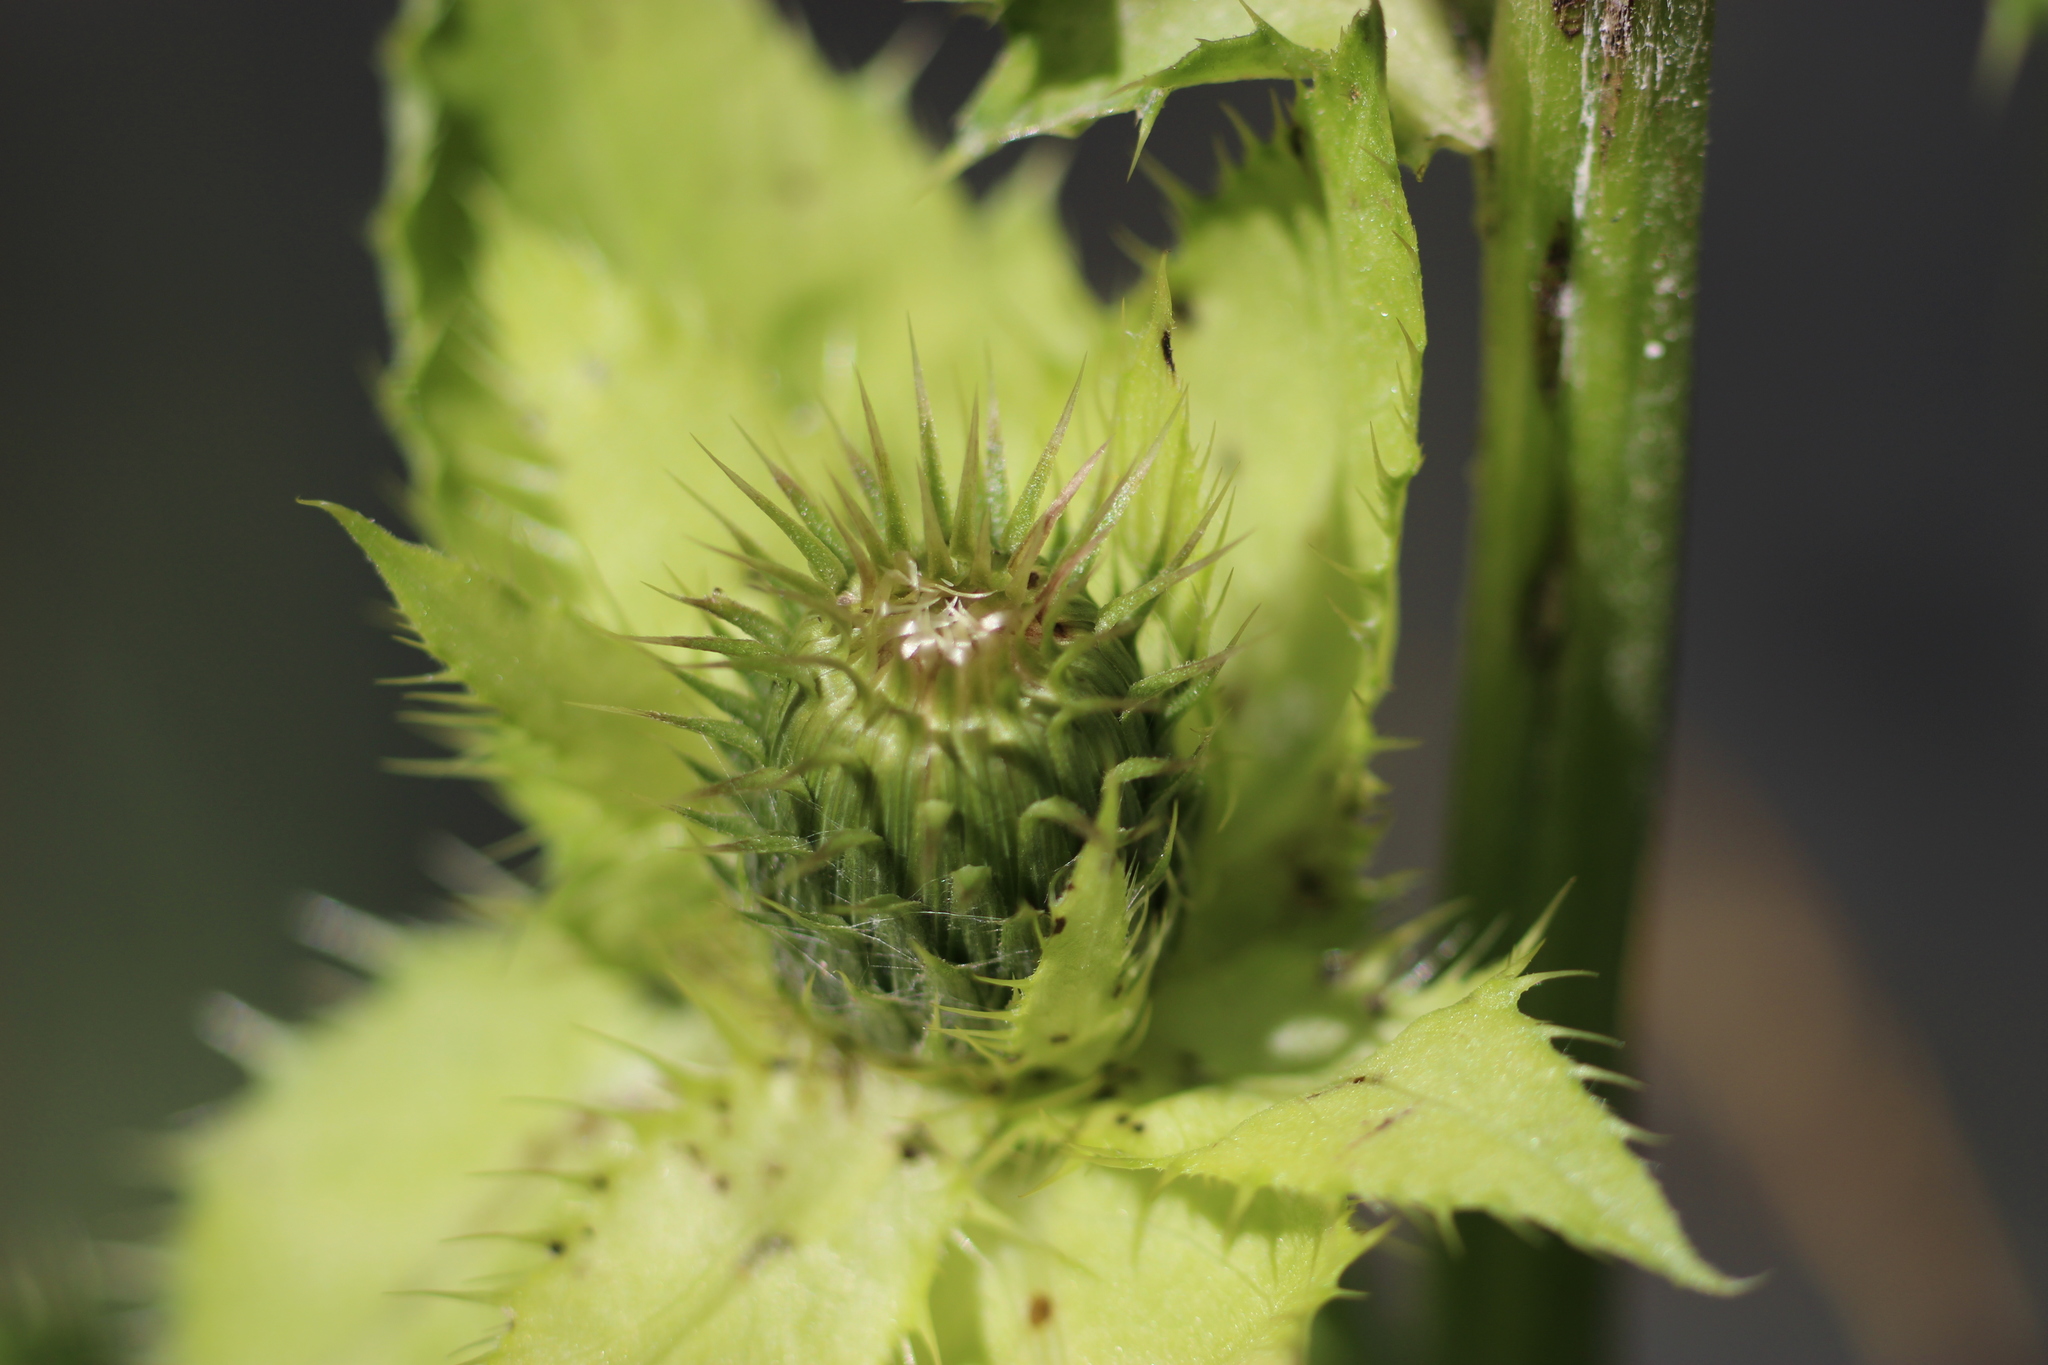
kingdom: Plantae
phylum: Tracheophyta
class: Magnoliopsida
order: Asterales
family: Asteraceae
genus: Cirsium
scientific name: Cirsium oleraceum
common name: Cabbage thistle
